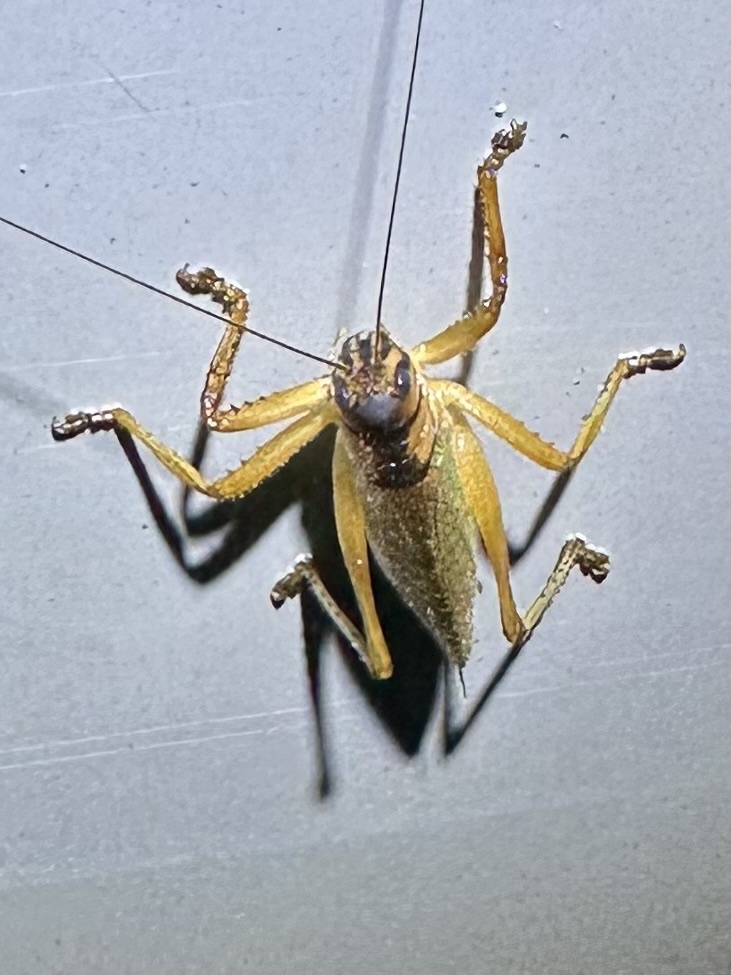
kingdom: Animalia
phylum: Arthropoda
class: Insecta
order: Orthoptera
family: Tettigoniidae
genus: Cocconotus
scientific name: Cocconotus wheeleri
